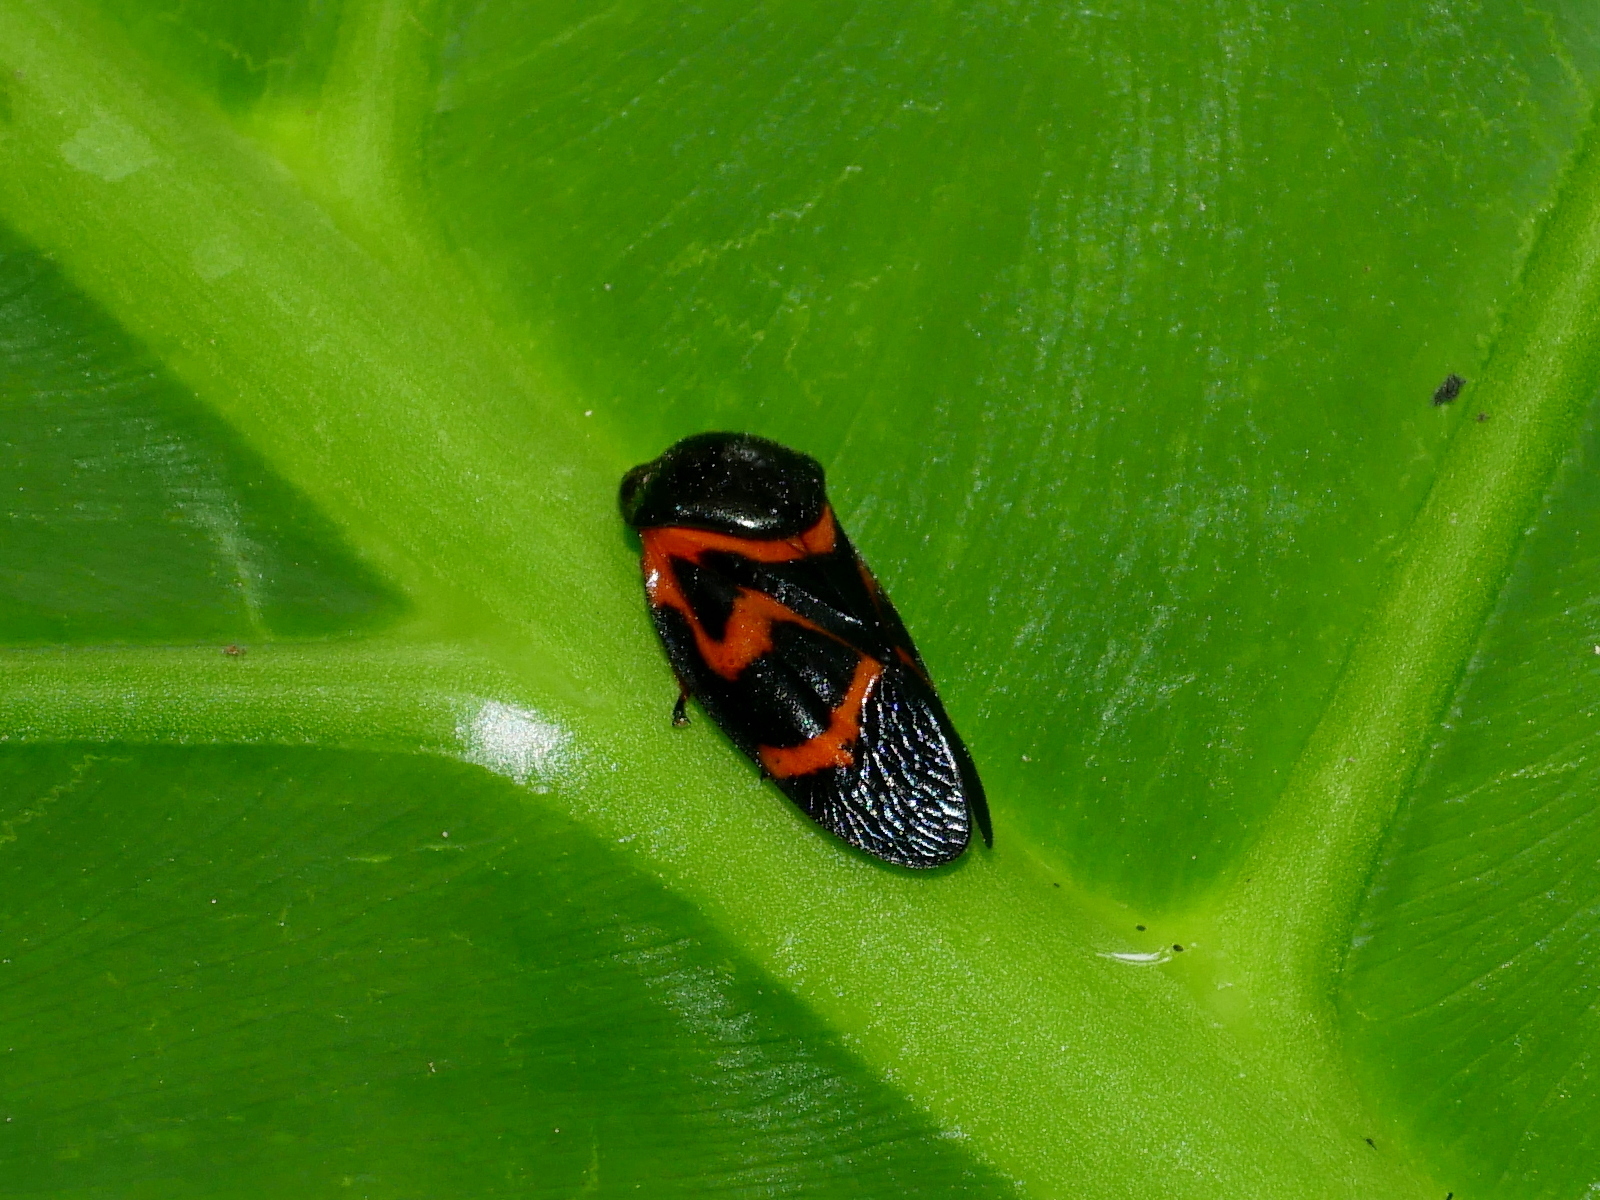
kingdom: Animalia
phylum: Arthropoda
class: Insecta
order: Hemiptera
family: Cercopidae
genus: Okiscarta
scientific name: Okiscarta uchidae
